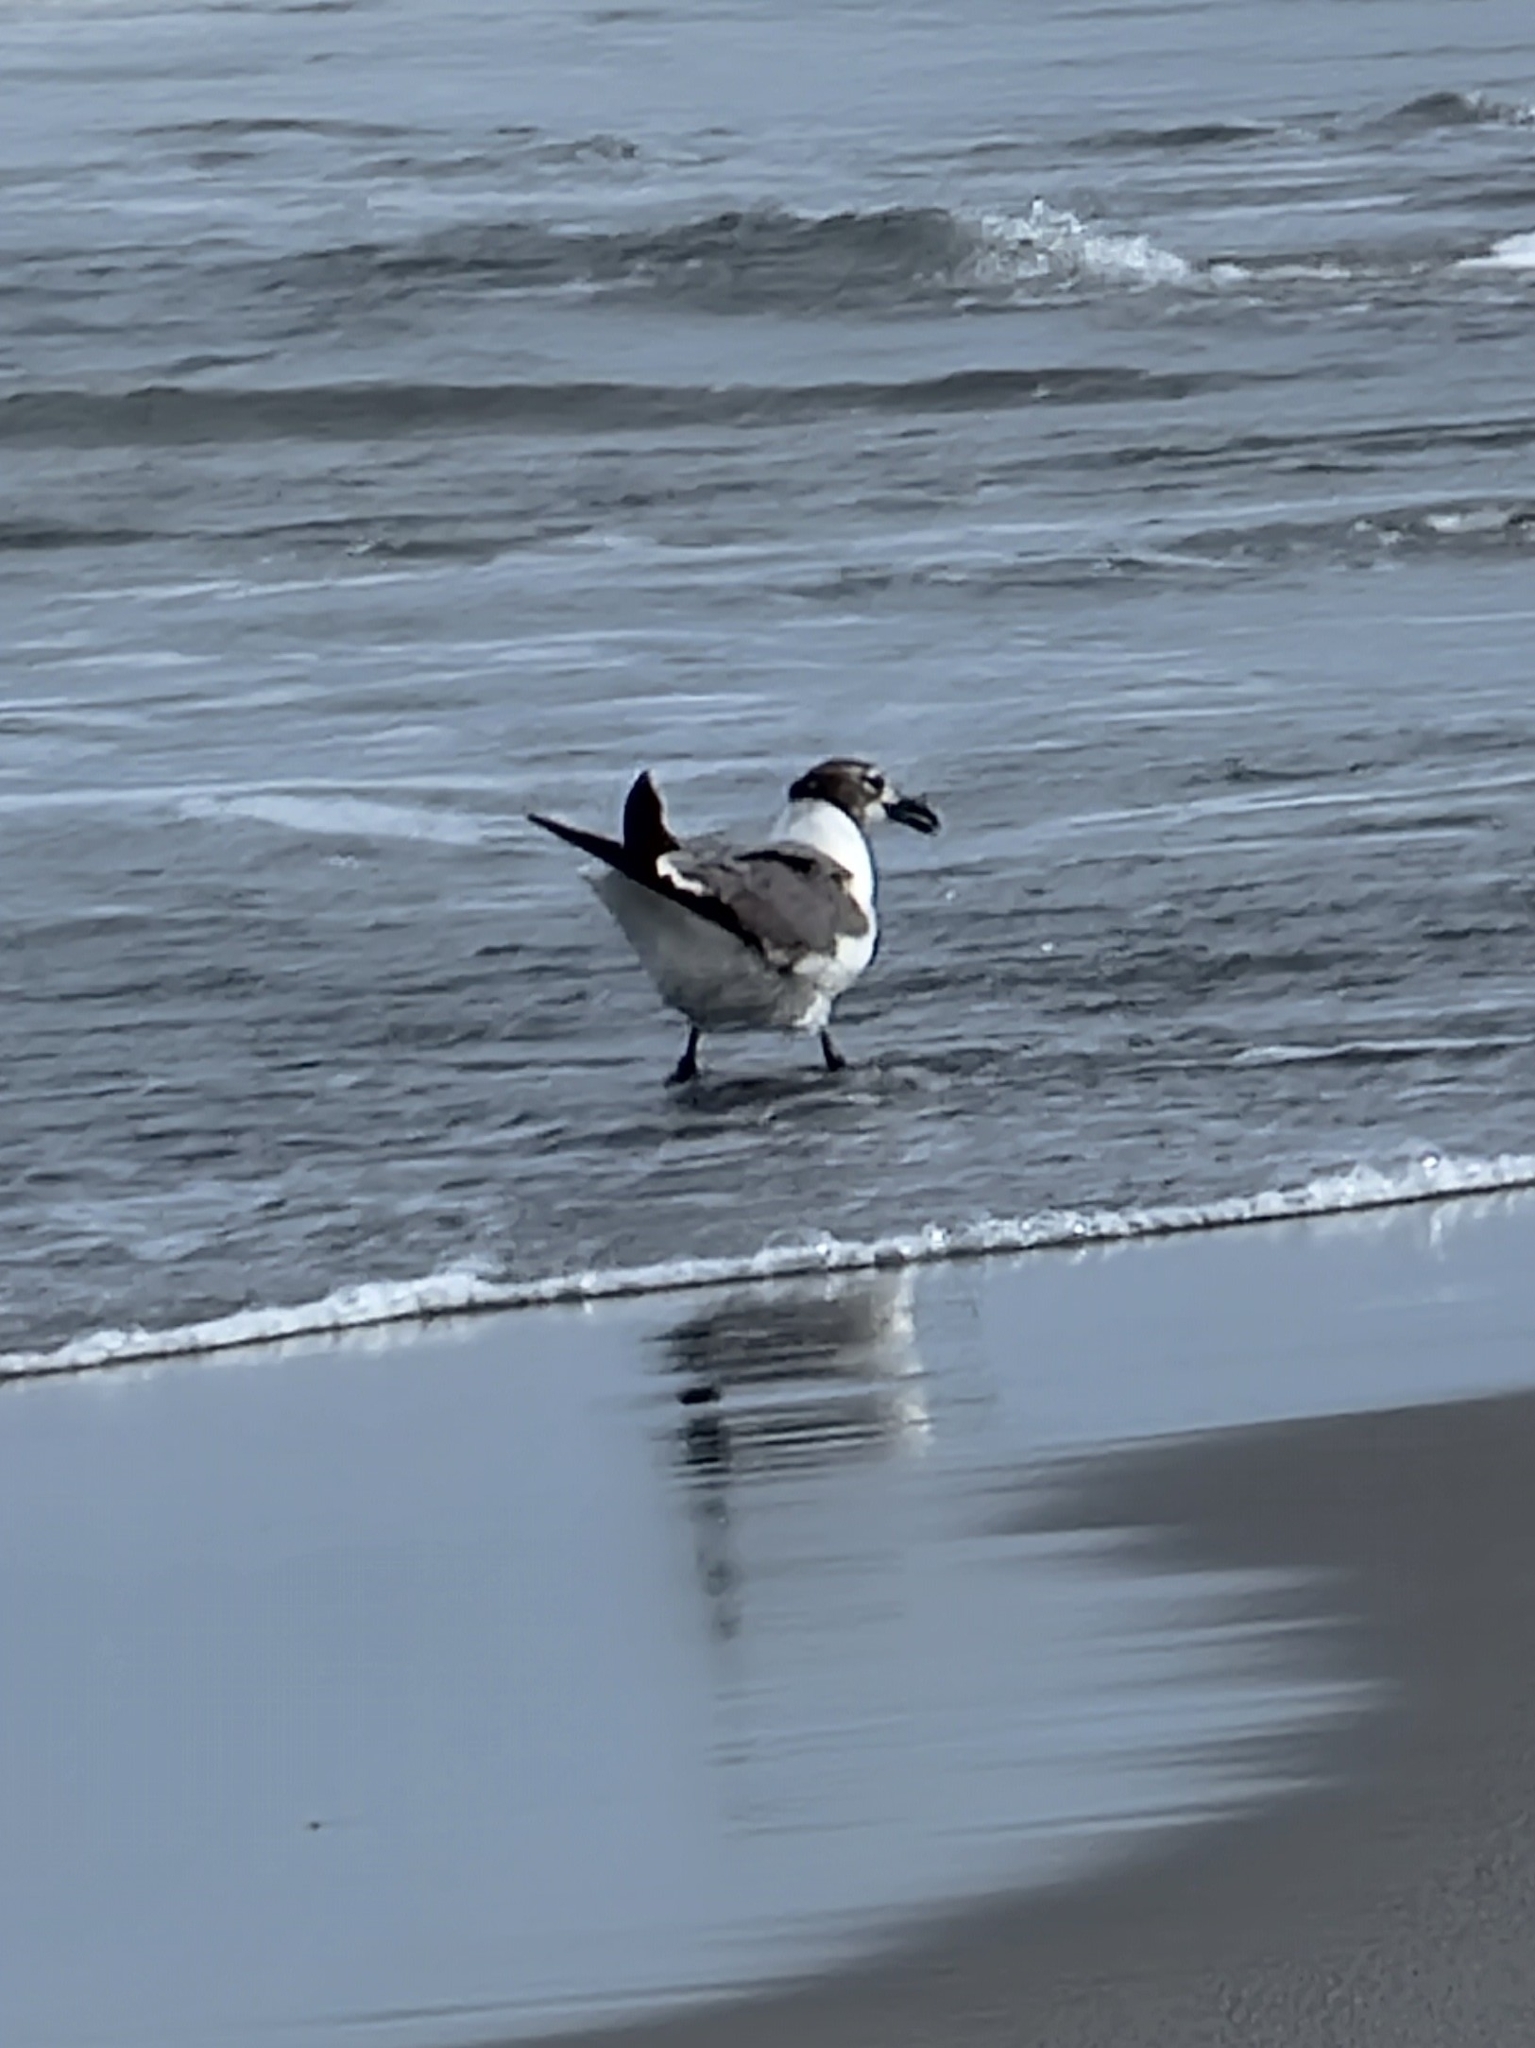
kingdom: Animalia
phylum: Chordata
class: Aves
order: Charadriiformes
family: Laridae
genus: Leucophaeus
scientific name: Leucophaeus atricilla
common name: Laughing gull
